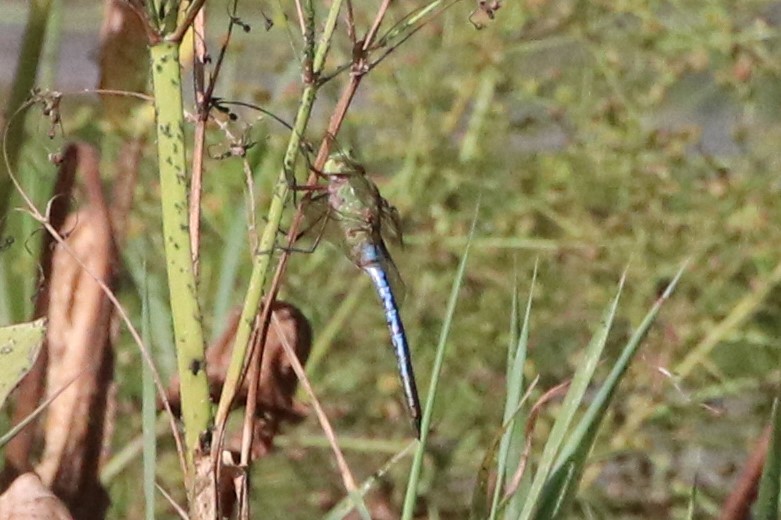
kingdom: Animalia
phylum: Arthropoda
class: Insecta
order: Odonata
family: Aeshnidae
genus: Anax
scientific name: Anax junius
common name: Common green darner
